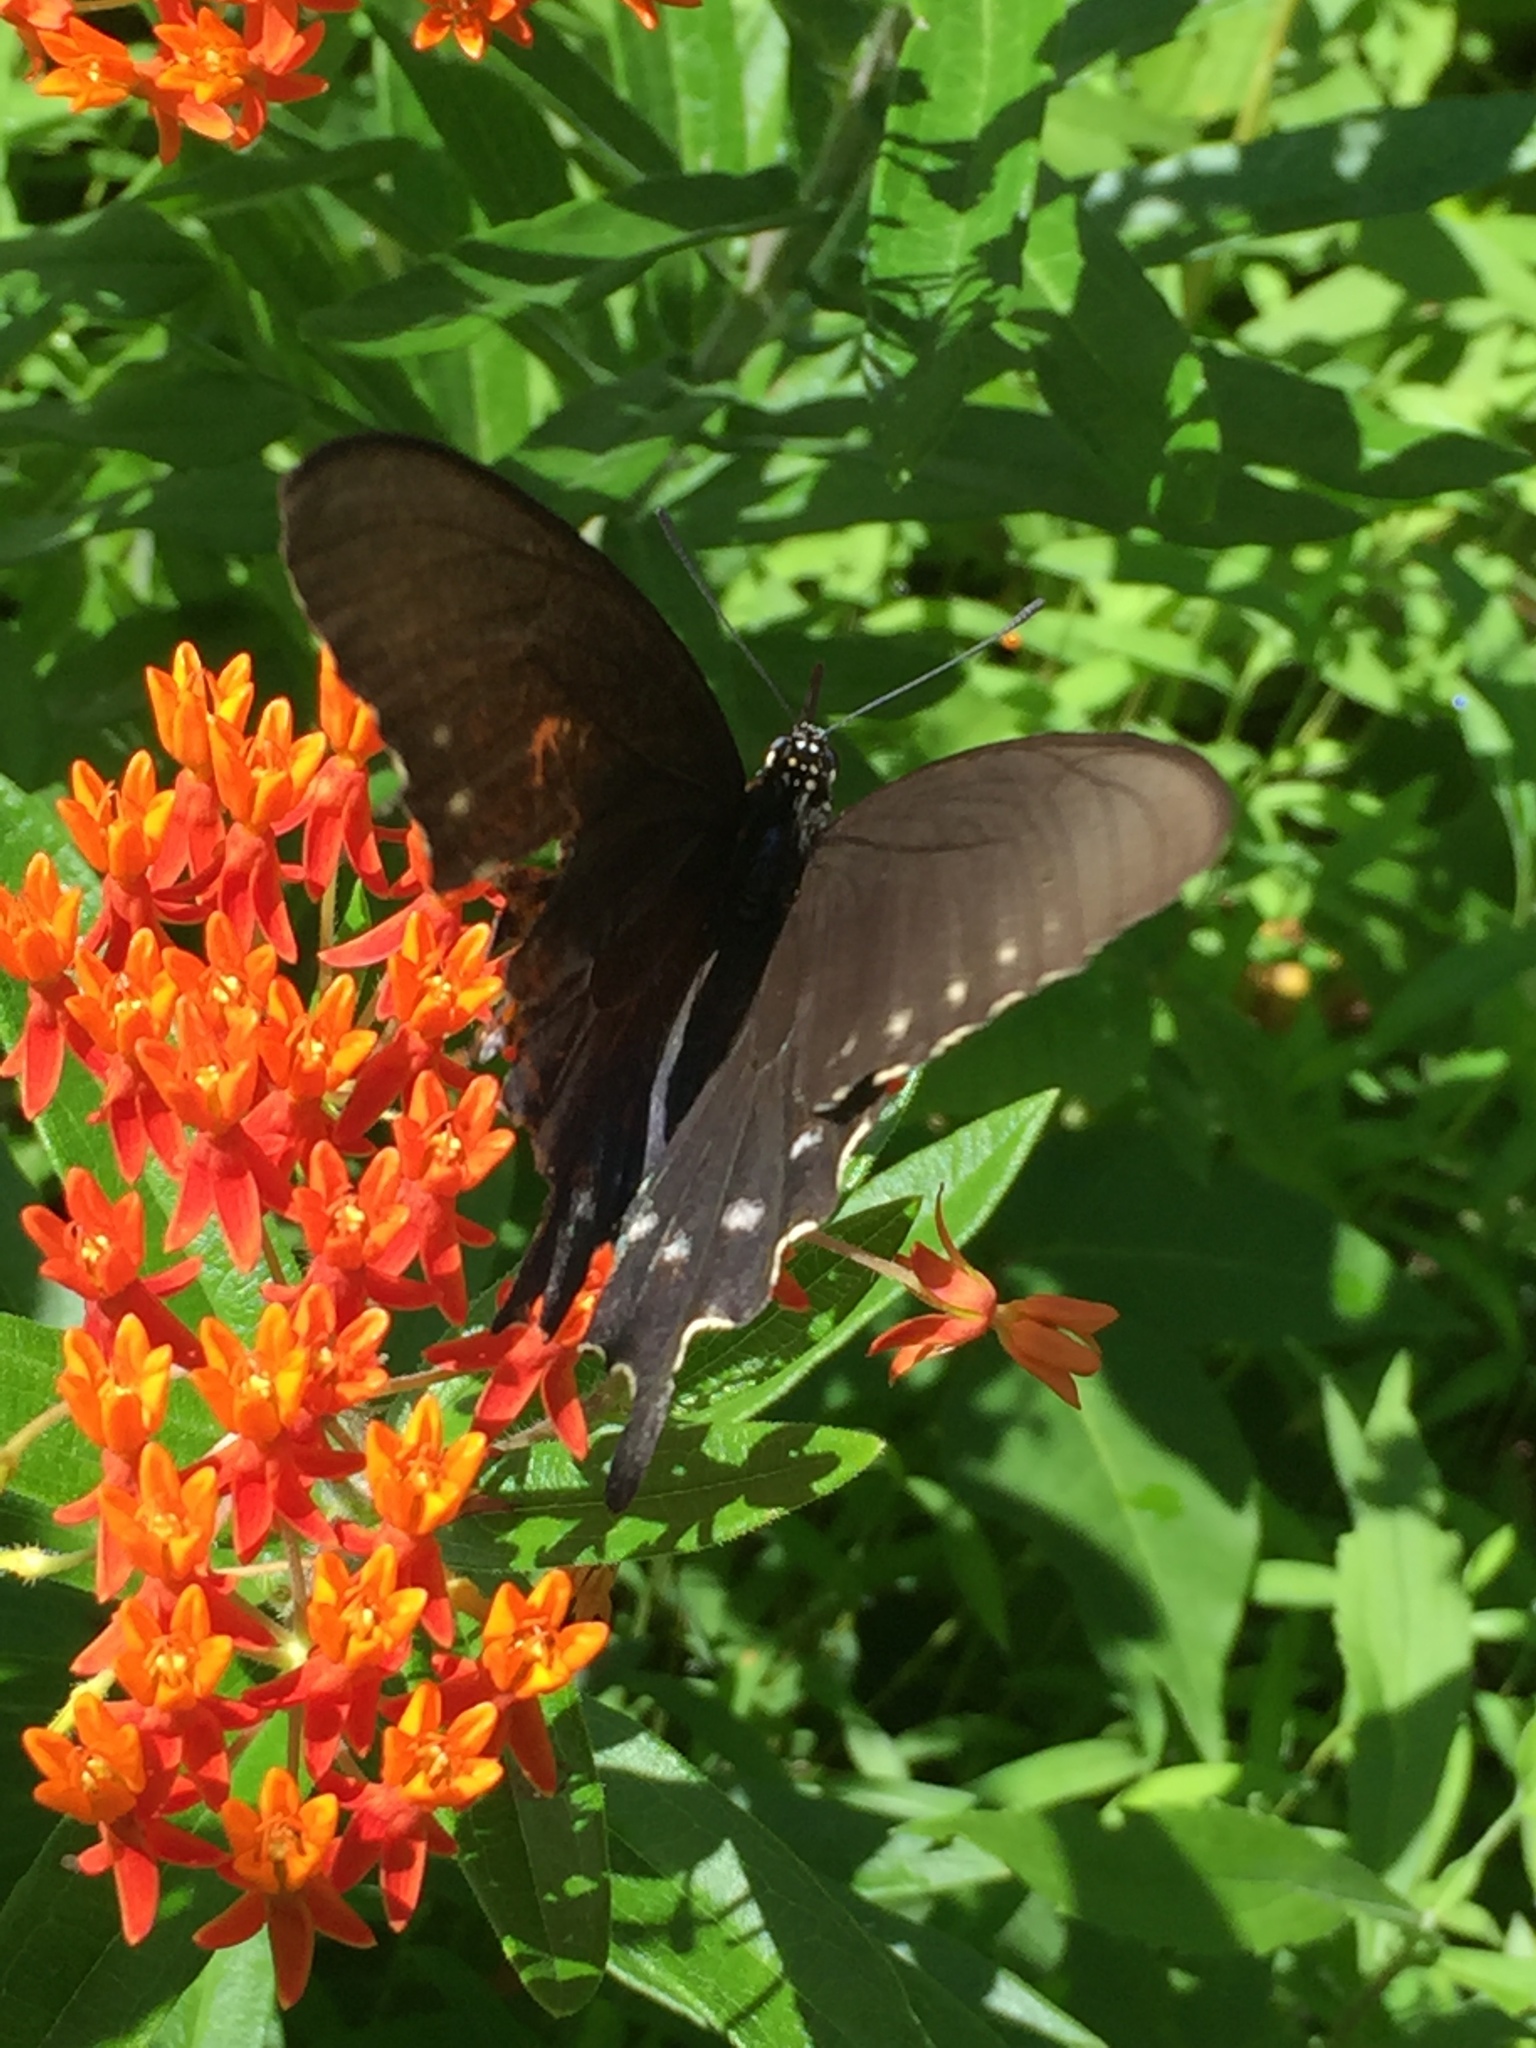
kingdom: Animalia
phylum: Arthropoda
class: Insecta
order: Lepidoptera
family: Papilionidae
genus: Battus
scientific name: Battus philenor
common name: Pipevine swallowtail
